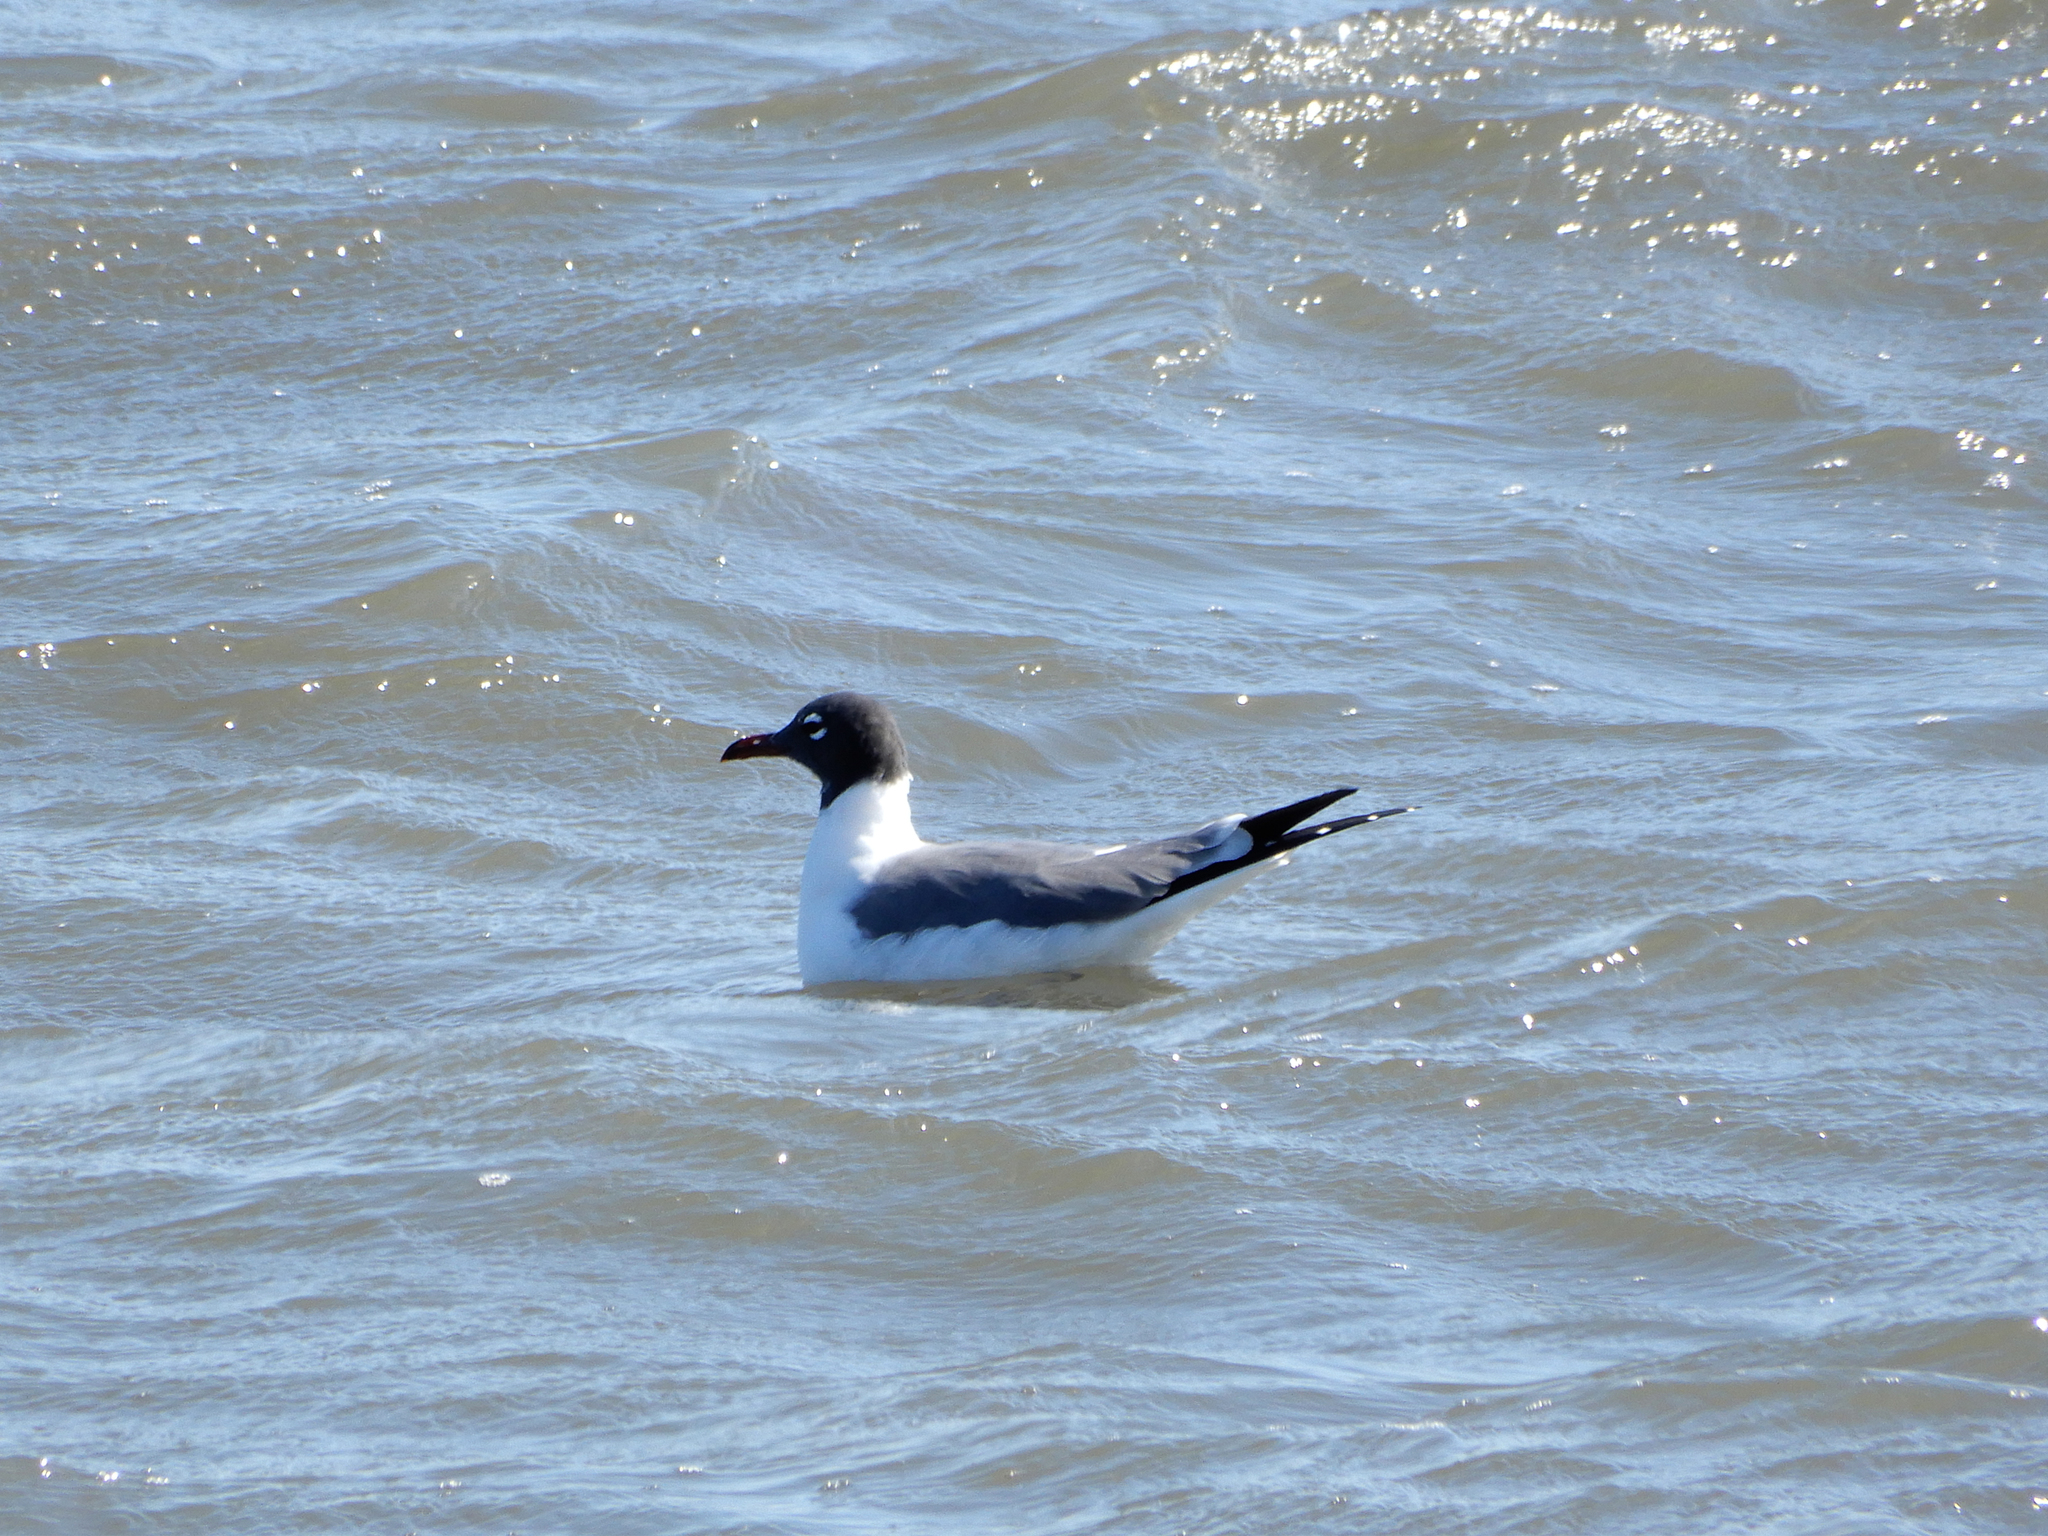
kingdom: Animalia
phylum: Chordata
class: Aves
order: Charadriiformes
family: Laridae
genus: Leucophaeus
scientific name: Leucophaeus atricilla
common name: Laughing gull
